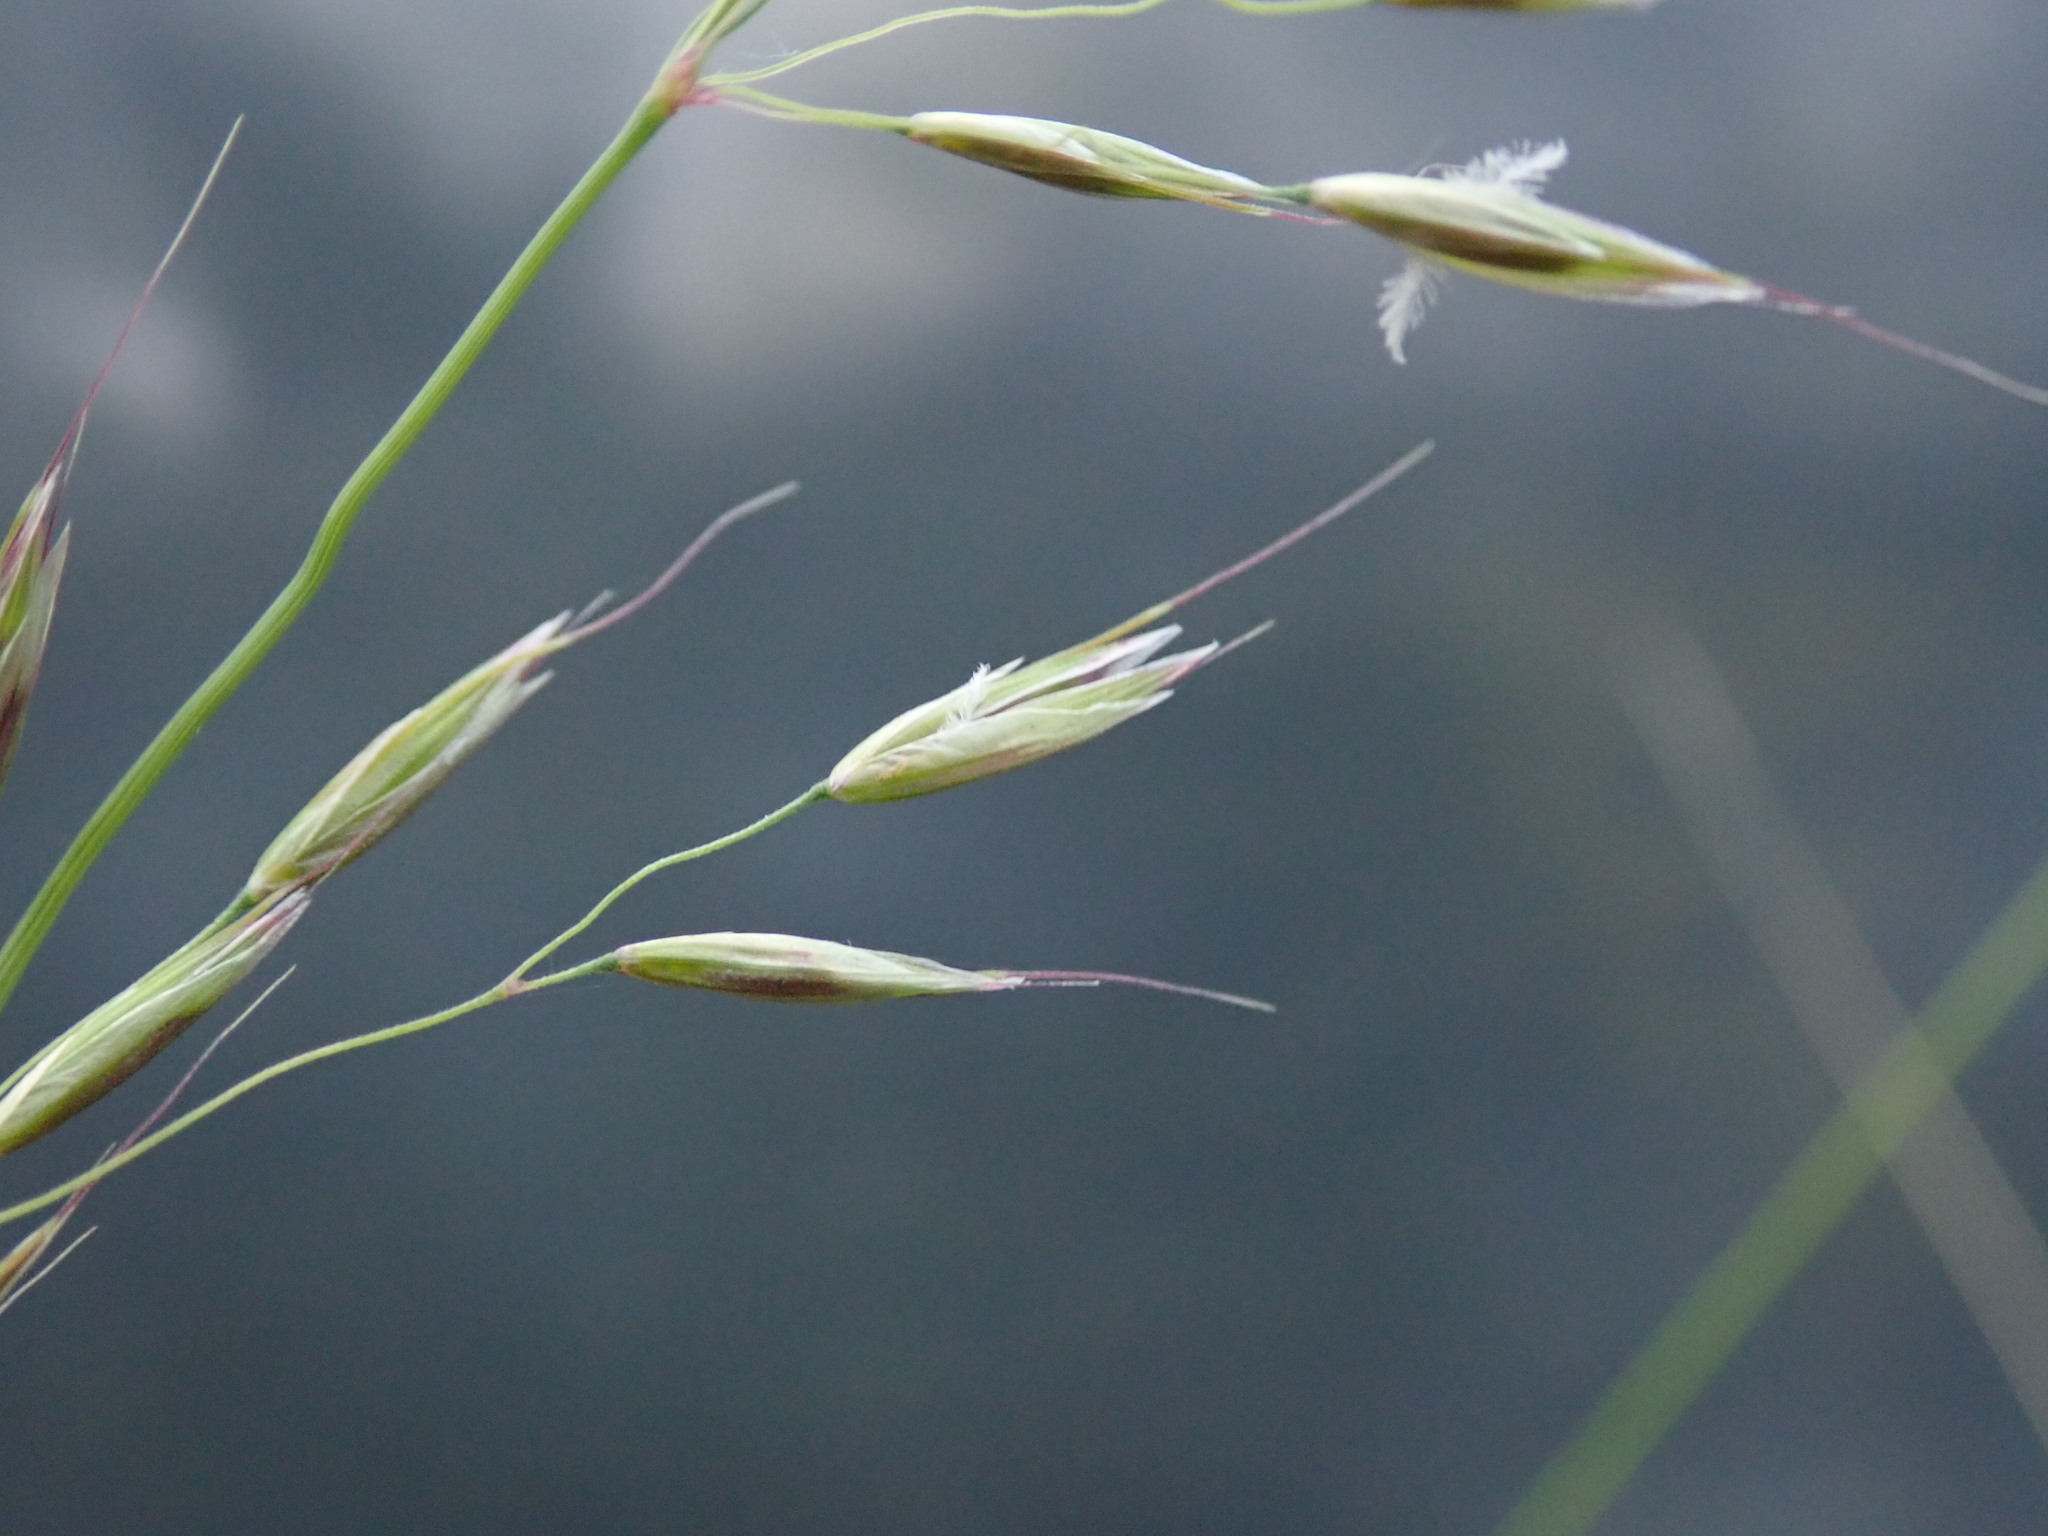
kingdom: Plantae
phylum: Tracheophyta
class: Liliopsida
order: Poales
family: Poaceae
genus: Arrhenatherum
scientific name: Arrhenatherum elatius
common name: Tall oatgrass
